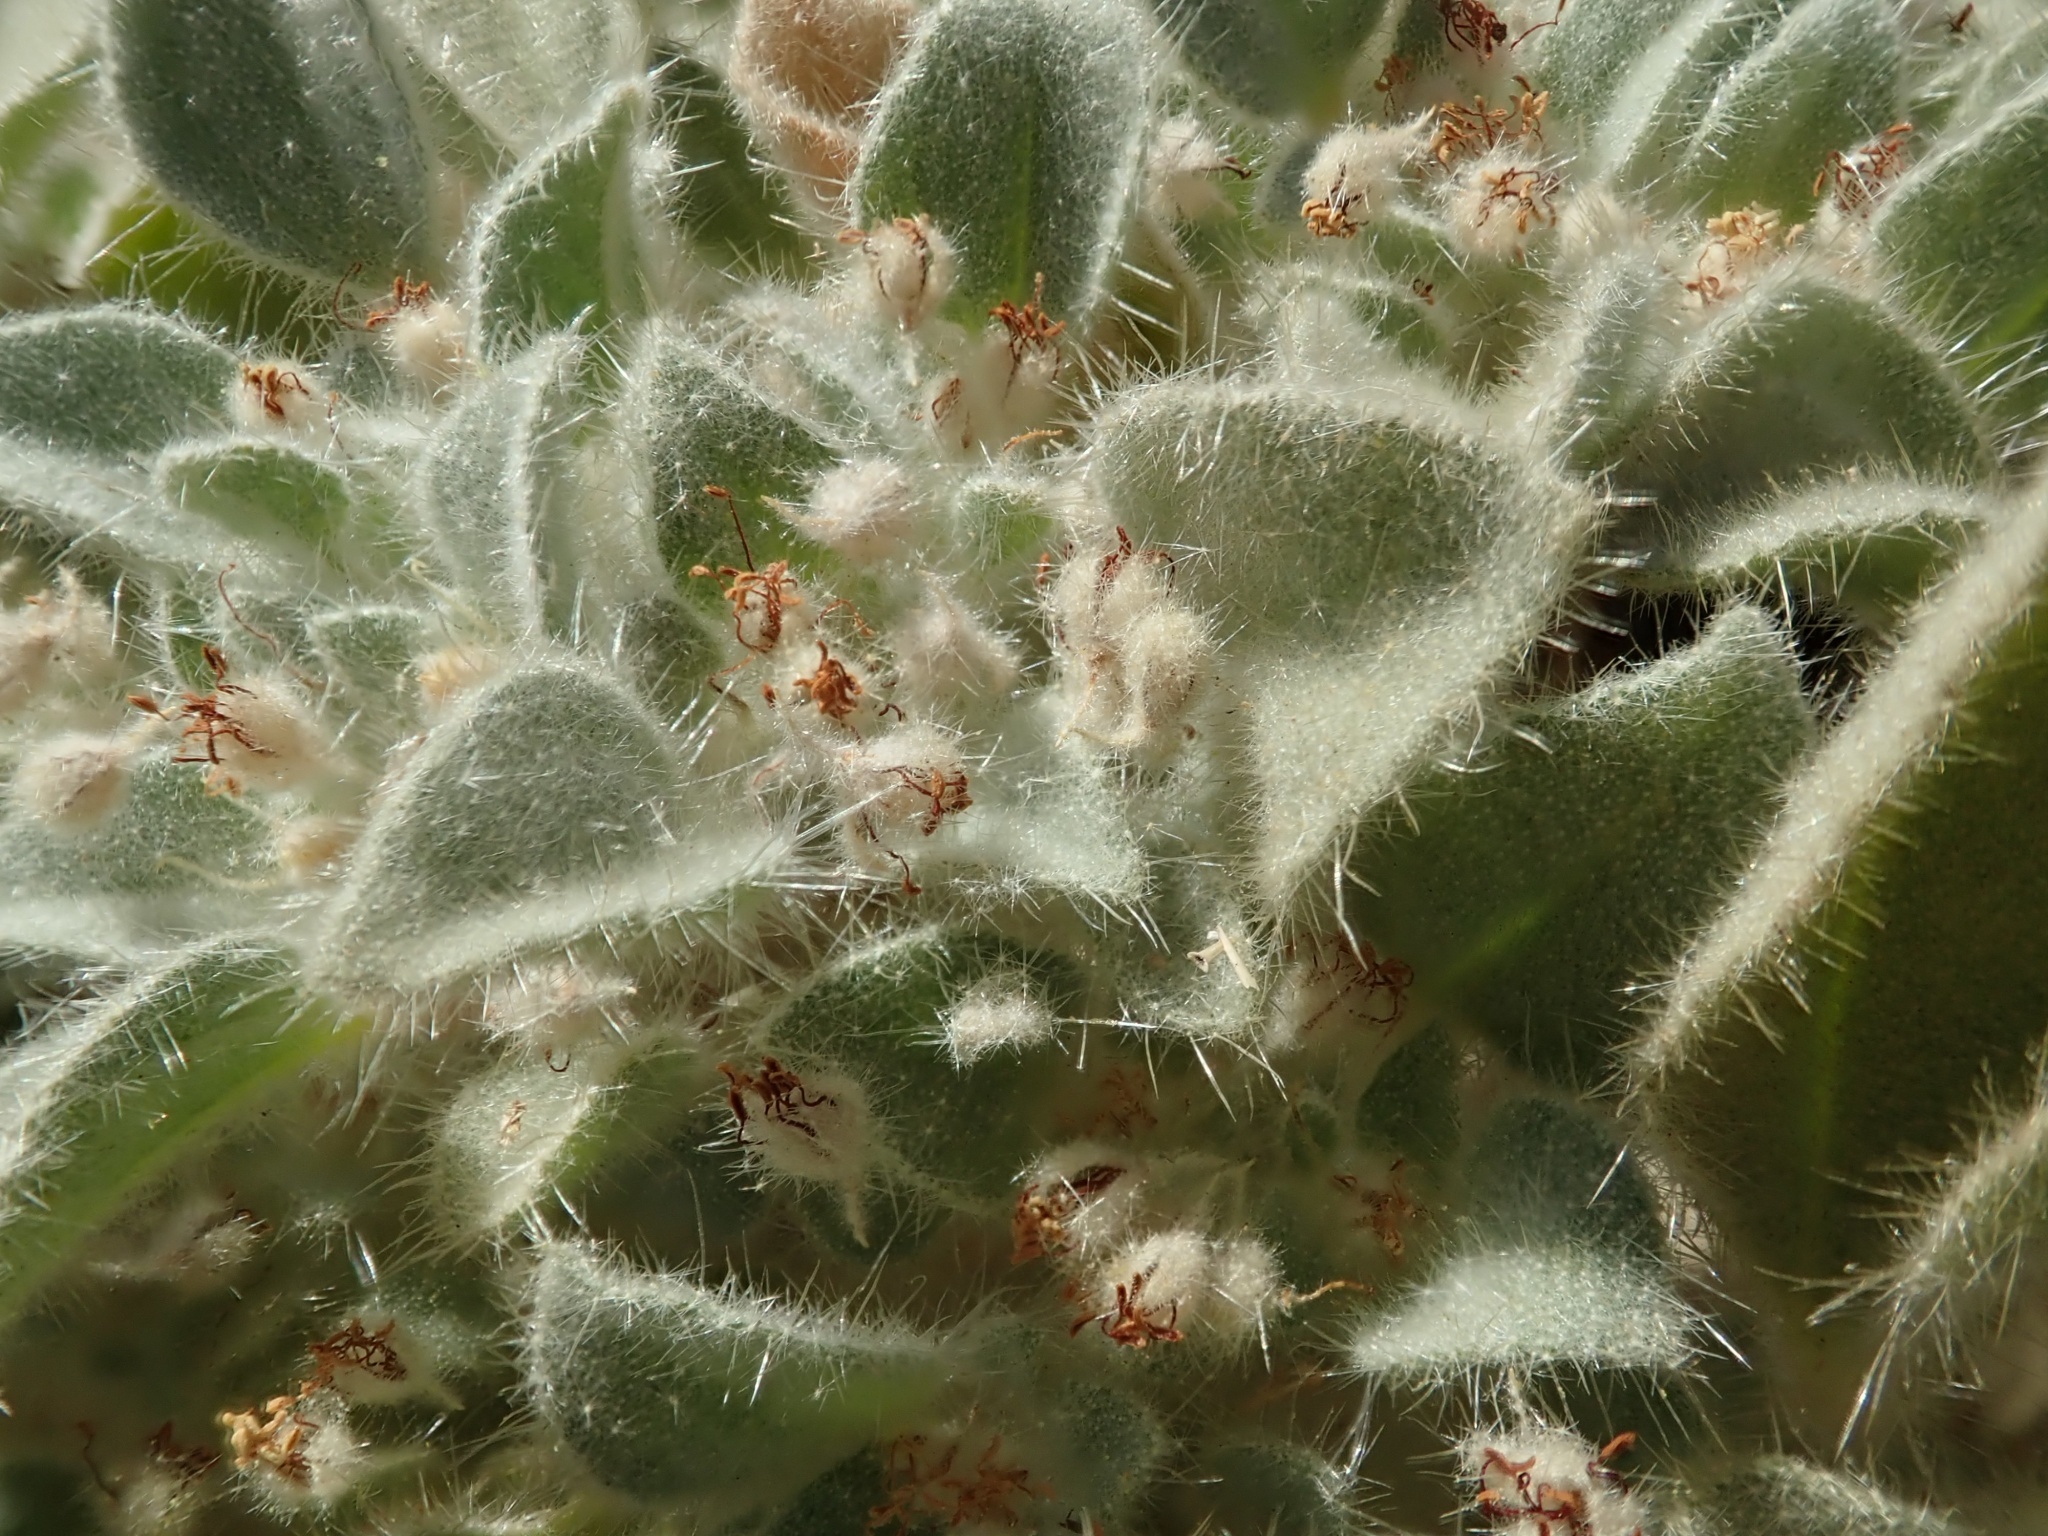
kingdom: Plantae
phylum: Tracheophyta
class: Magnoliopsida
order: Malpighiales
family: Euphorbiaceae
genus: Croton
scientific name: Croton setiger
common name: Dove weed
